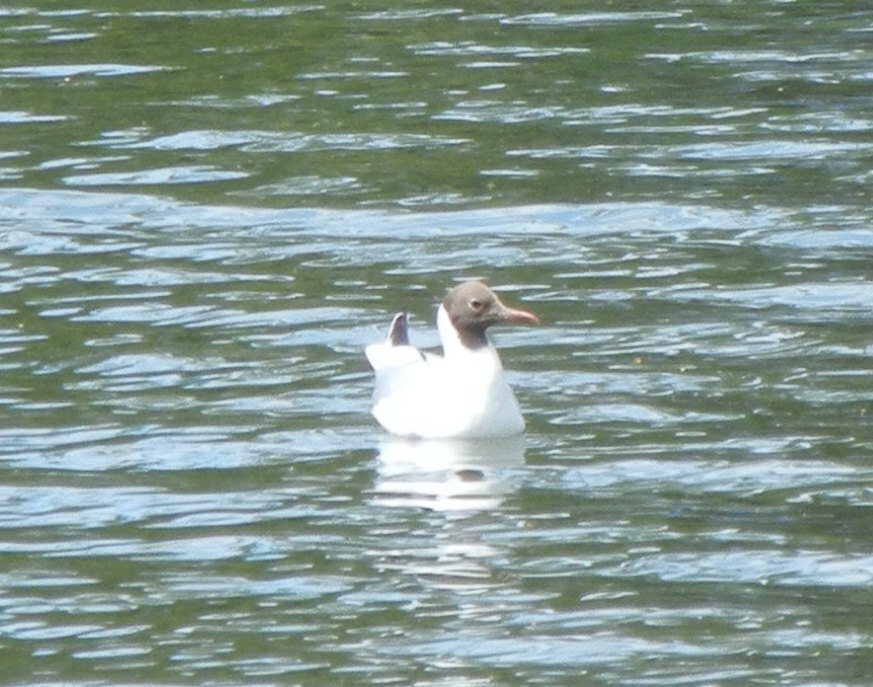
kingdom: Animalia
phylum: Chordata
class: Aves
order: Charadriiformes
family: Laridae
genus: Chroicocephalus
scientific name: Chroicocephalus ridibundus
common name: Black-headed gull
